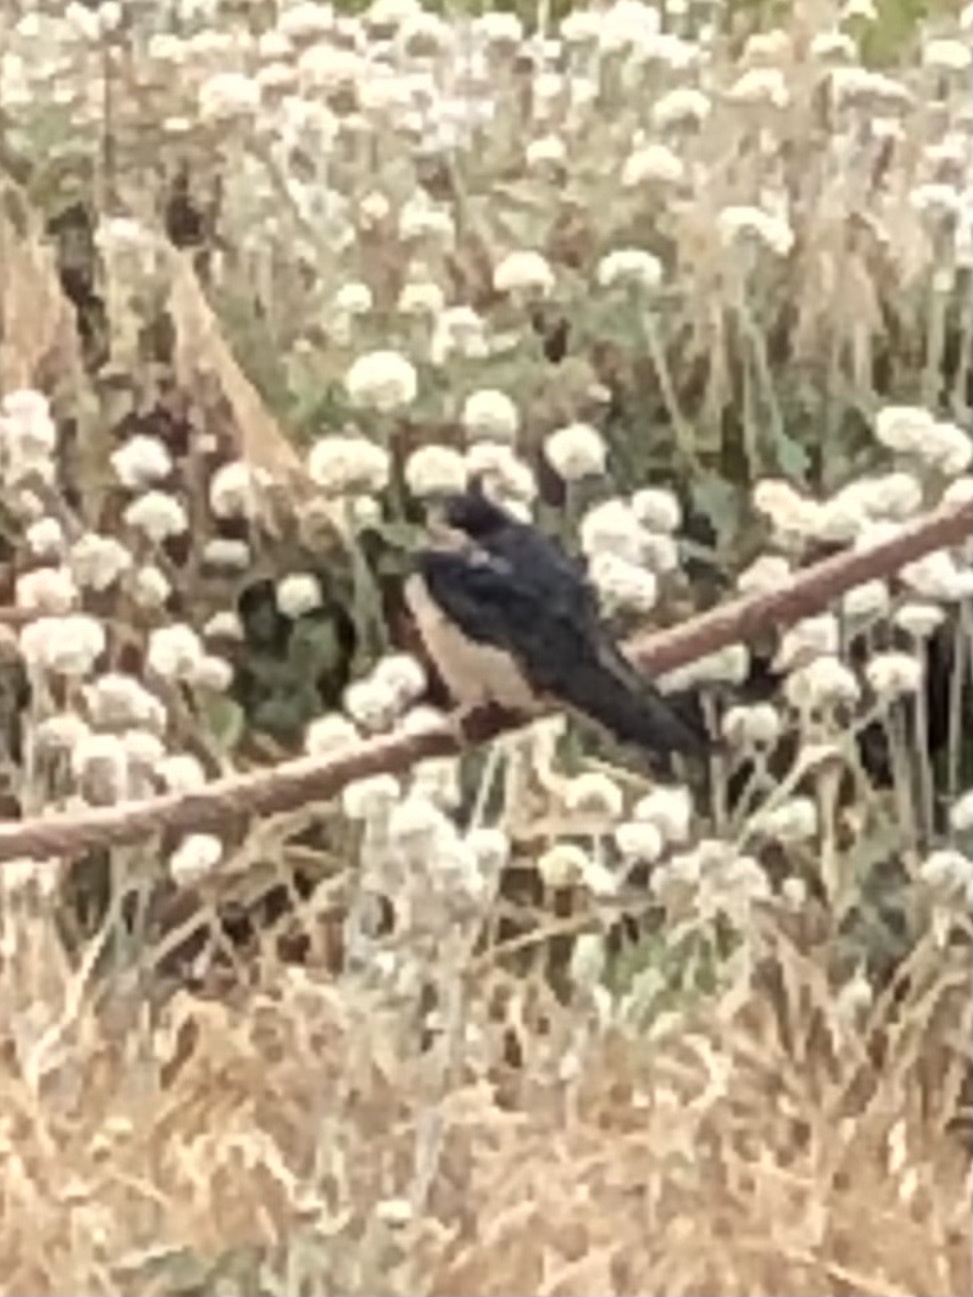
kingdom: Animalia
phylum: Chordata
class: Aves
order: Passeriformes
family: Hirundinidae
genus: Hirundo
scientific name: Hirundo rustica
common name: Barn swallow
